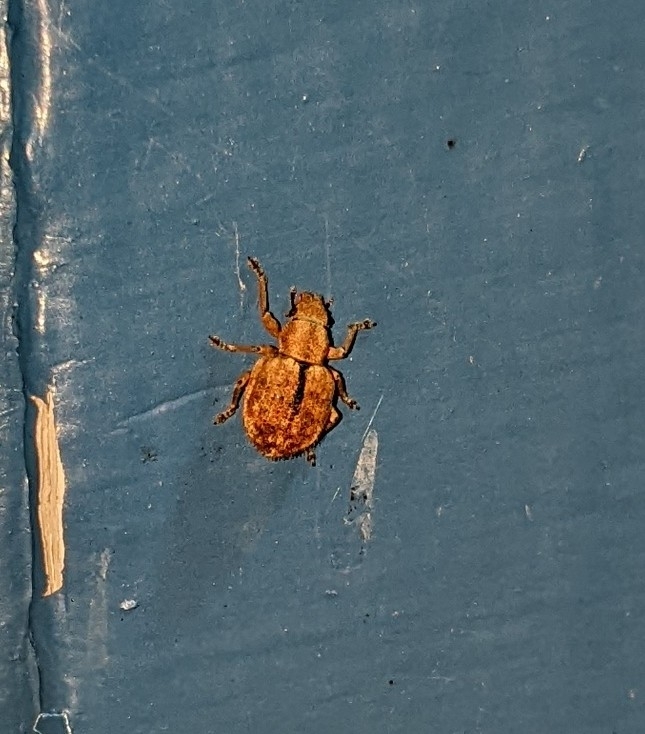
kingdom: Animalia
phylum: Arthropoda
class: Insecta
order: Coleoptera
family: Curculionidae
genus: Strophosoma
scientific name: Strophosoma melanogrammum
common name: Weevil
